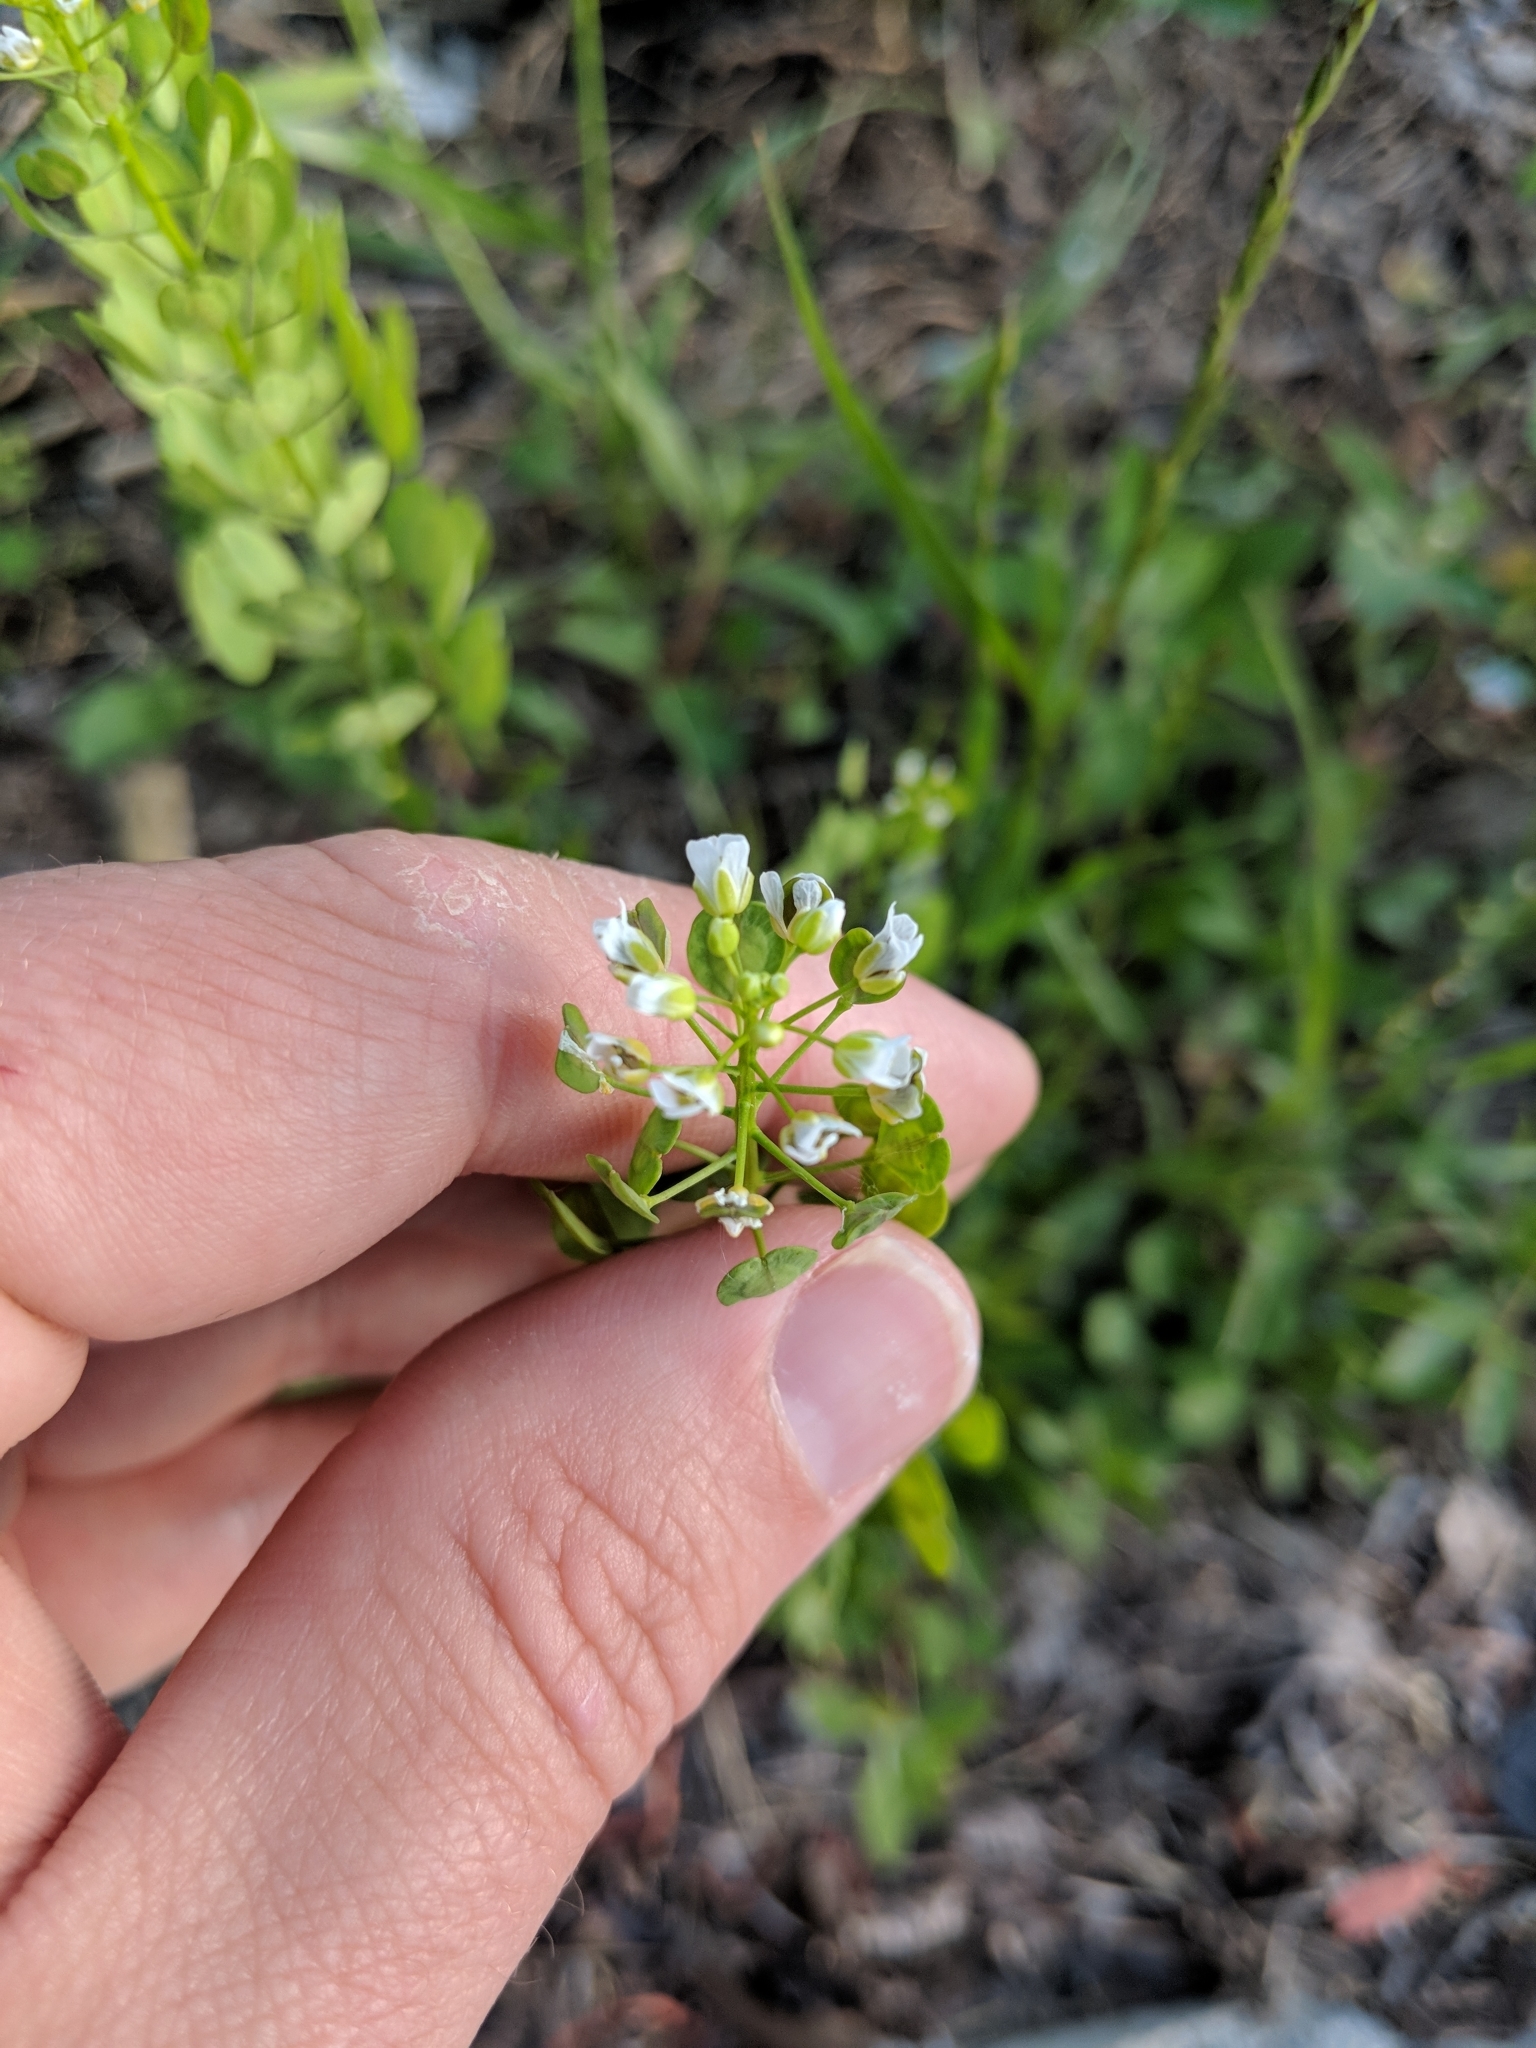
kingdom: Plantae
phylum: Tracheophyta
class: Magnoliopsida
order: Brassicales
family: Brassicaceae
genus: Thlaspi
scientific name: Thlaspi arvense
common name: Field pennycress
